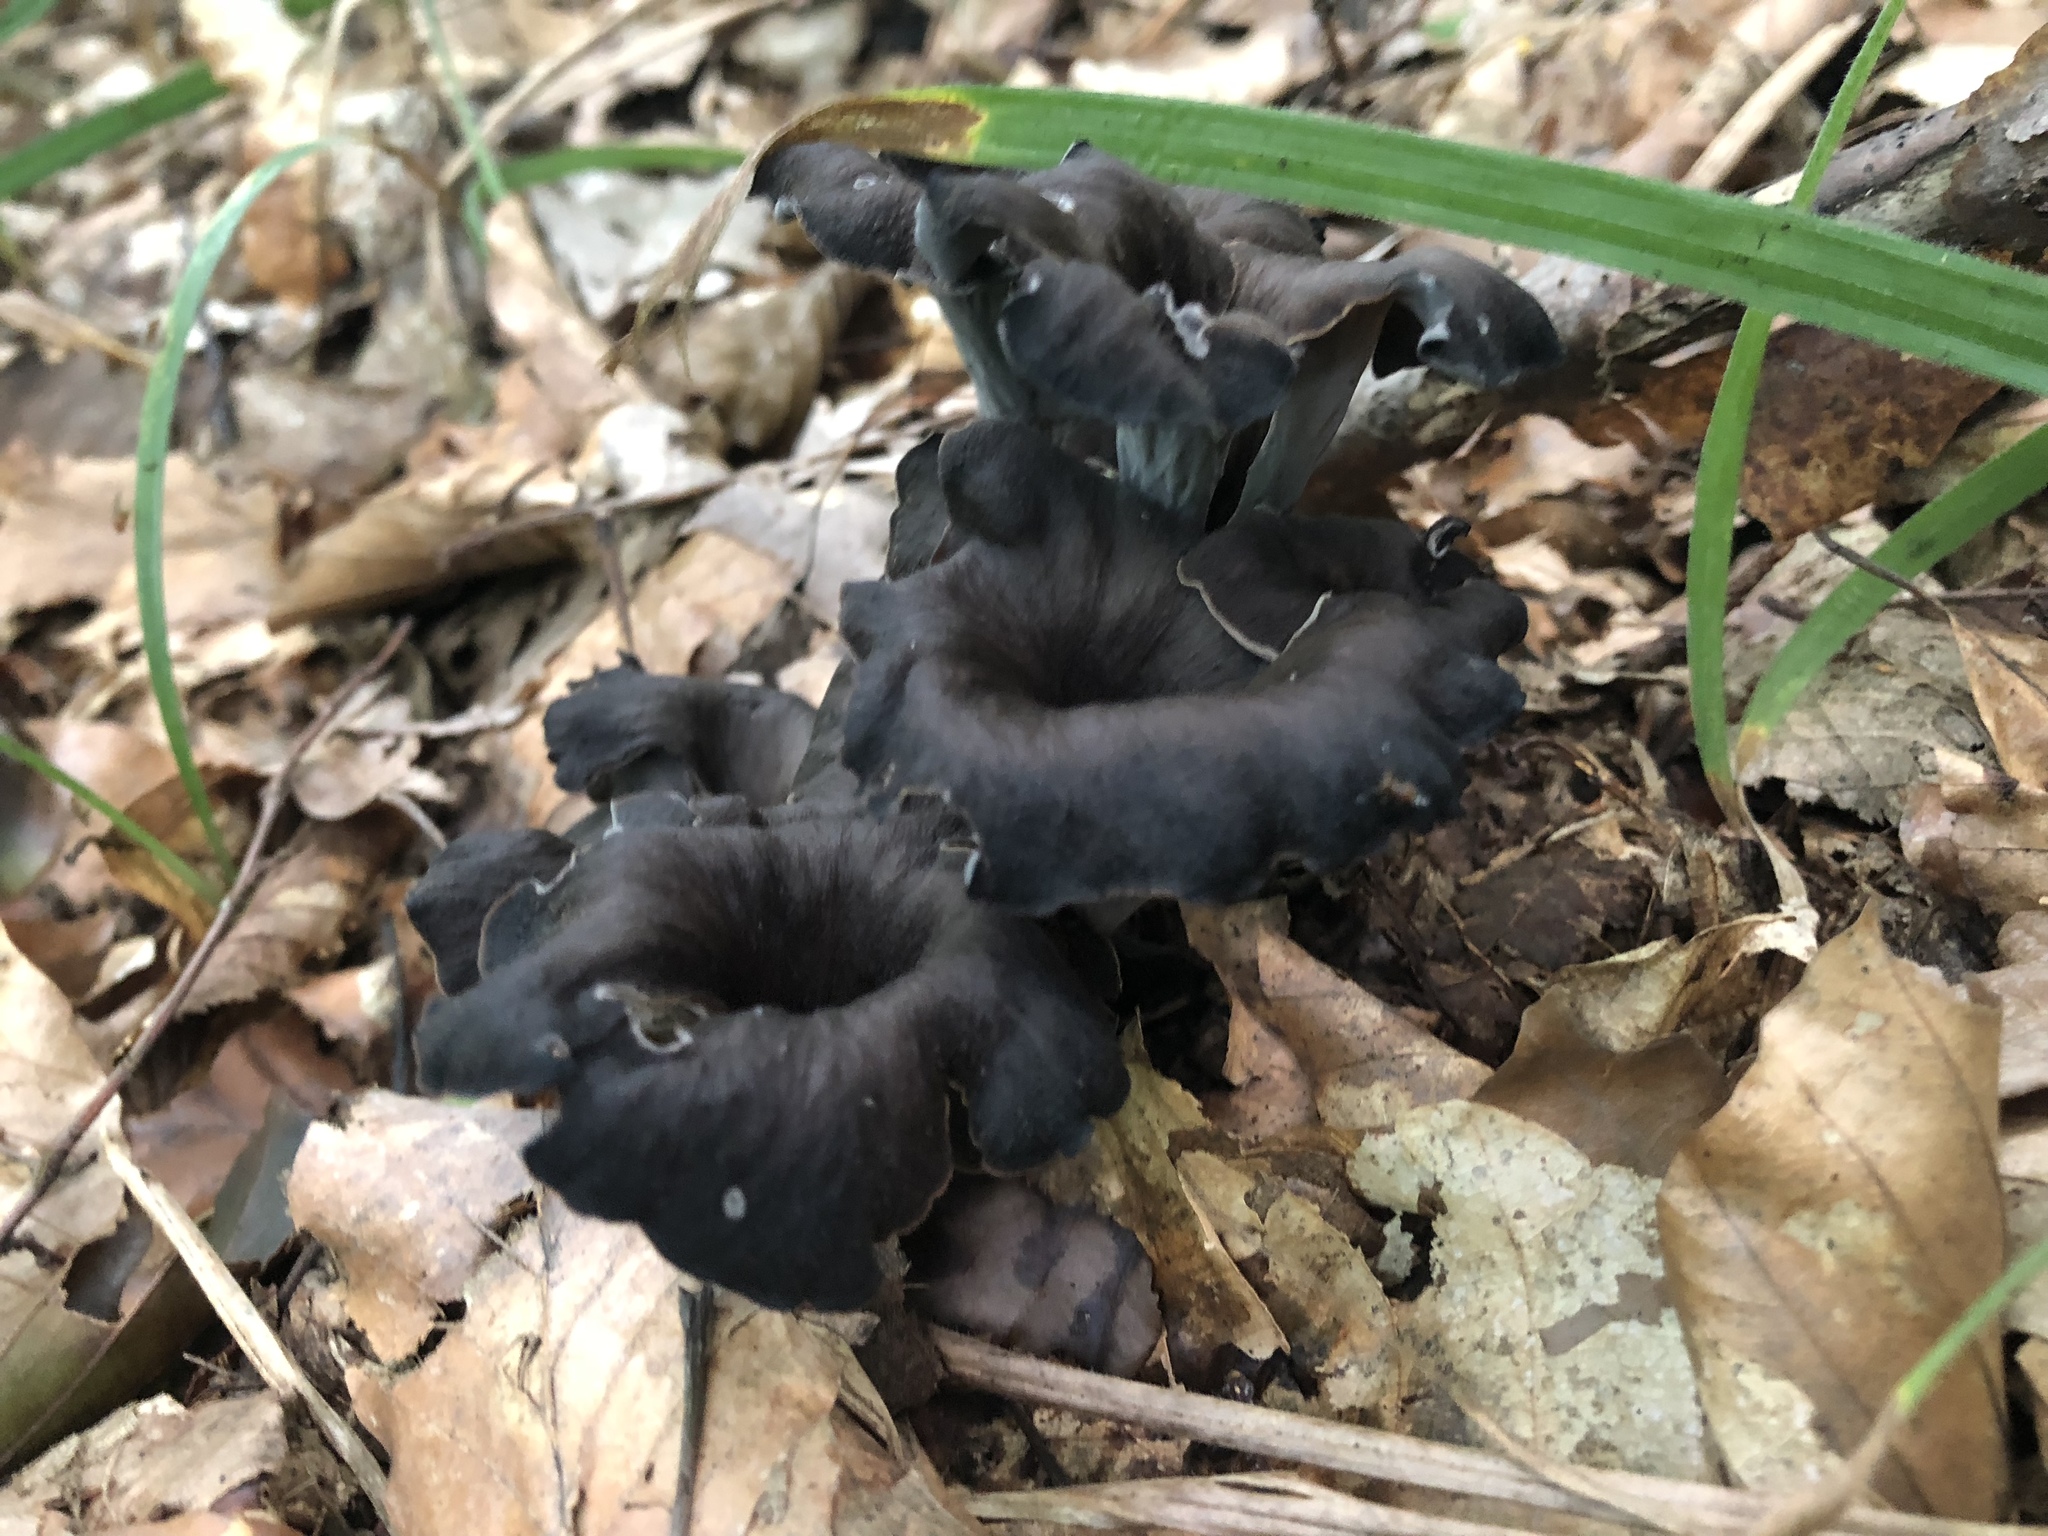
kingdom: Fungi
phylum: Basidiomycota
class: Agaricomycetes
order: Cantharellales
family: Hydnaceae
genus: Craterellus
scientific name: Craterellus cornucopioides
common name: Horn of plenty
